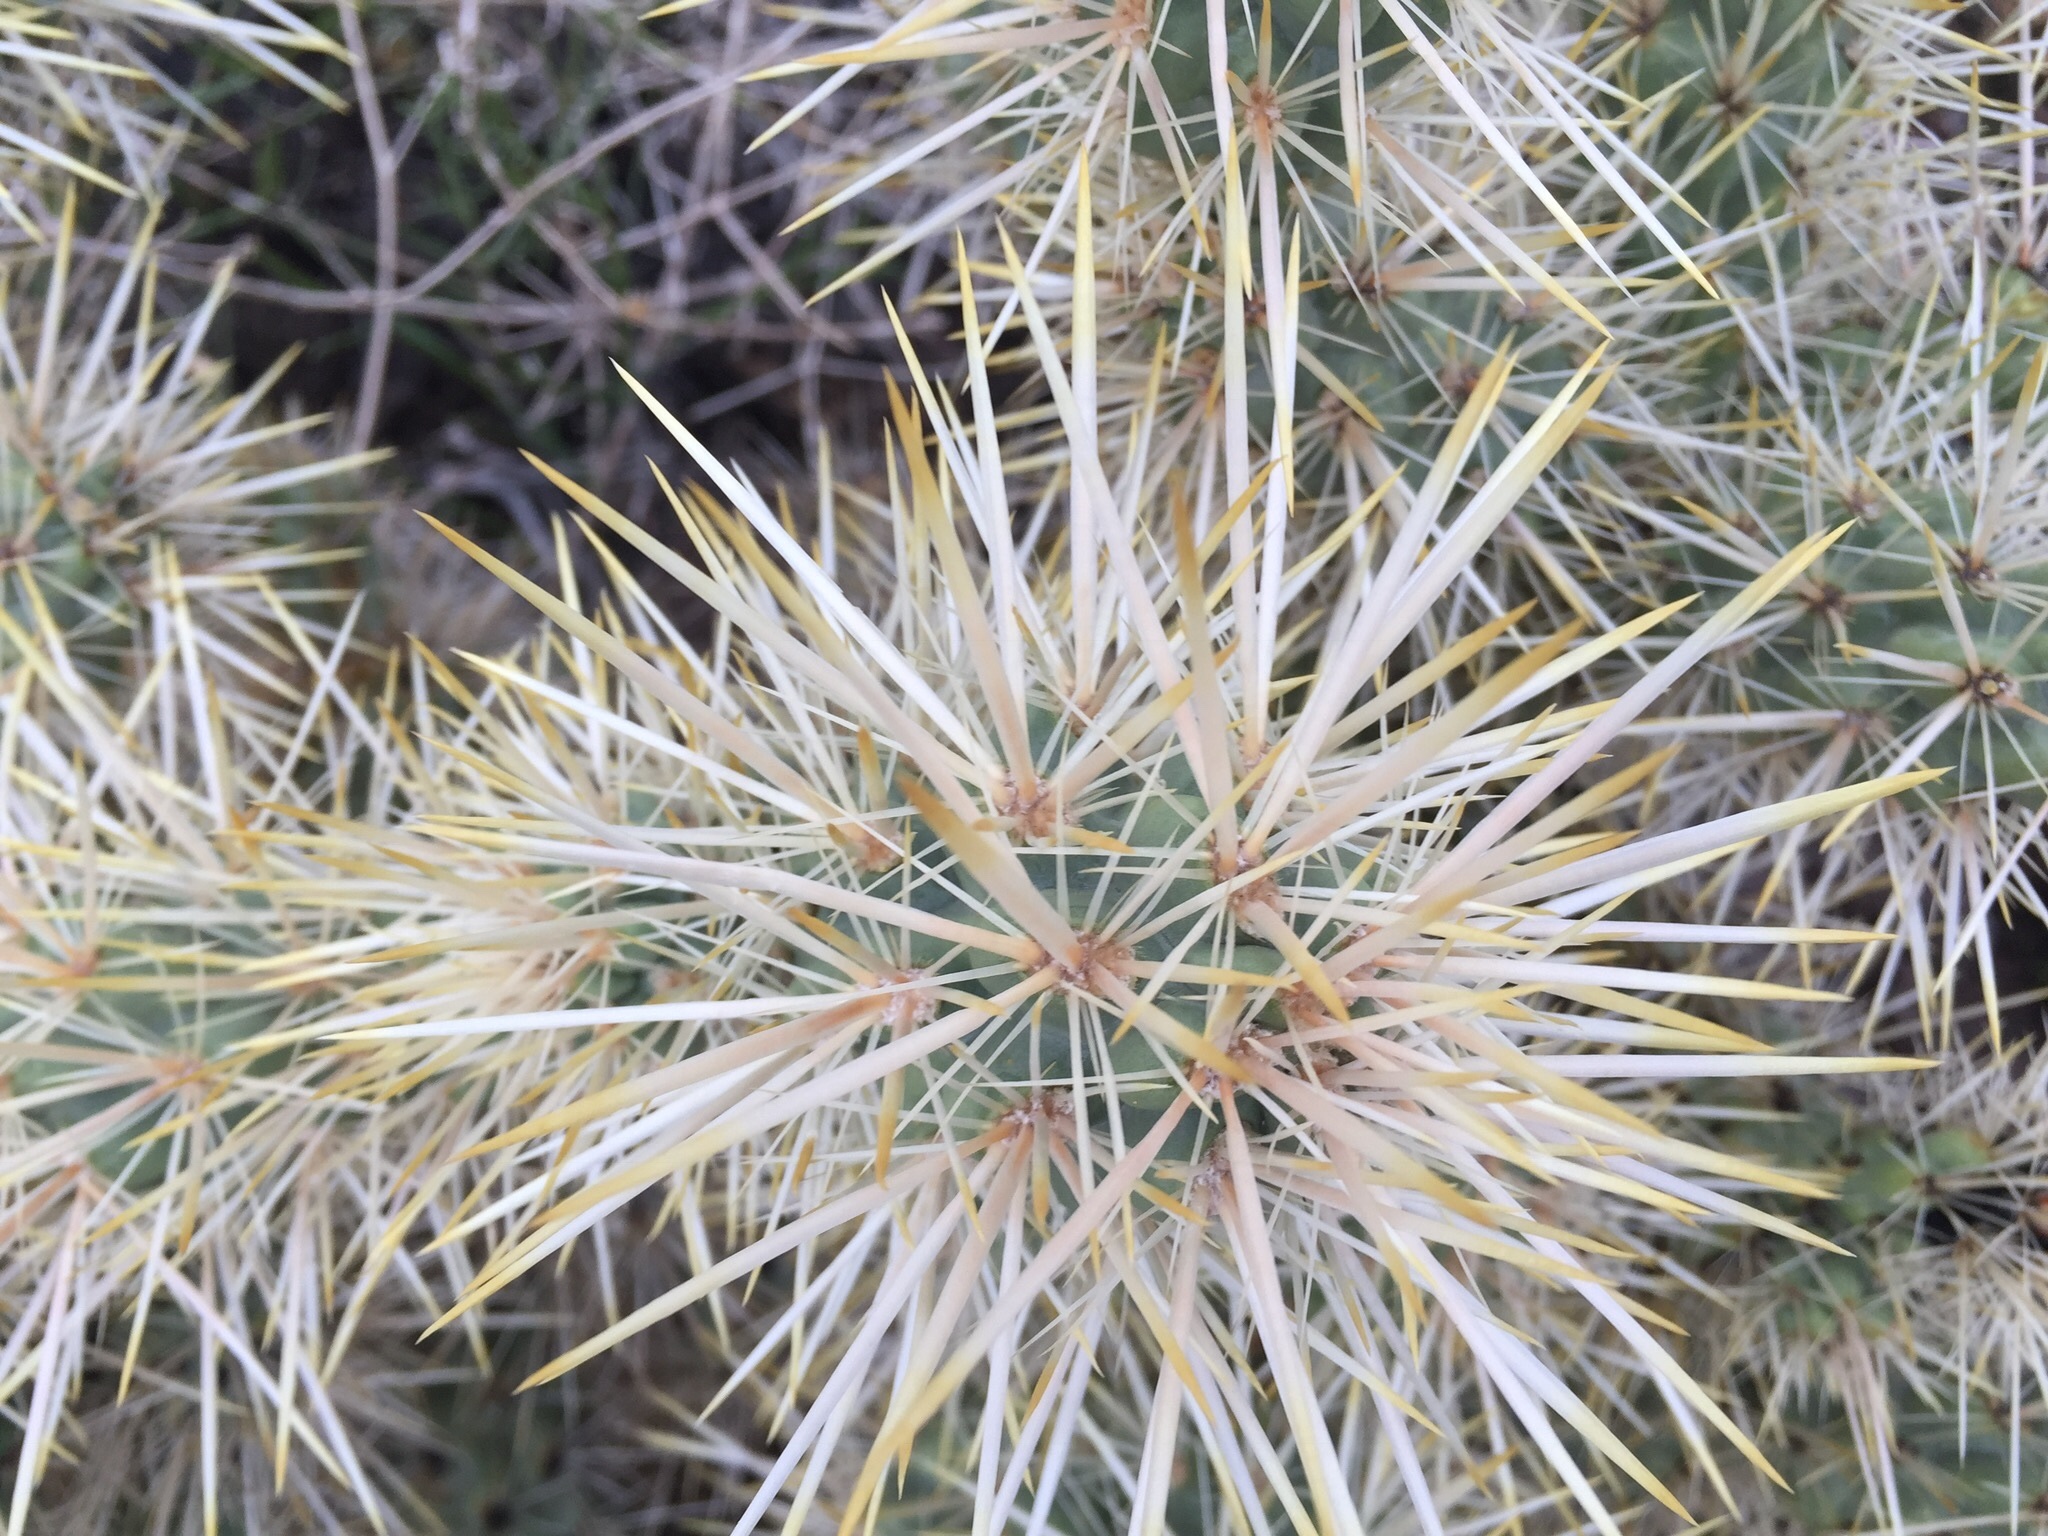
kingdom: Plantae
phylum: Tracheophyta
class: Magnoliopsida
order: Caryophyllales
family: Cactaceae
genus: Cylindropuntia
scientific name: Cylindropuntia echinocarpa
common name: Ground cholla
